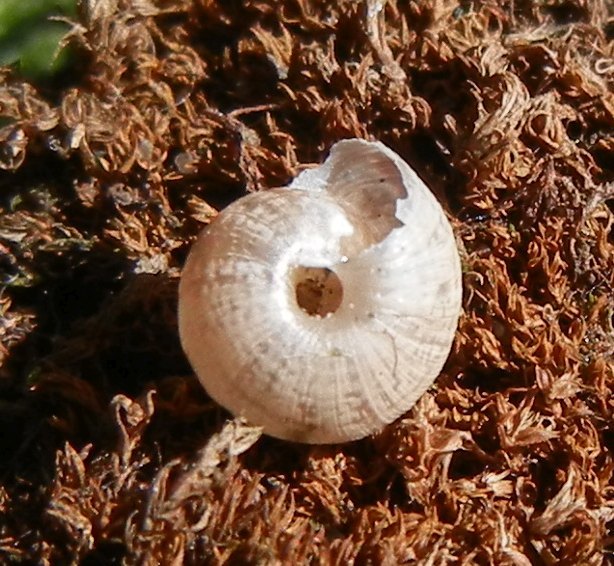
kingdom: Animalia
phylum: Mollusca
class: Gastropoda
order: Stylommatophora
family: Geomitridae
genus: Xeroplexa
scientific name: Xeroplexa intersecta
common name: Wrinkled snail
